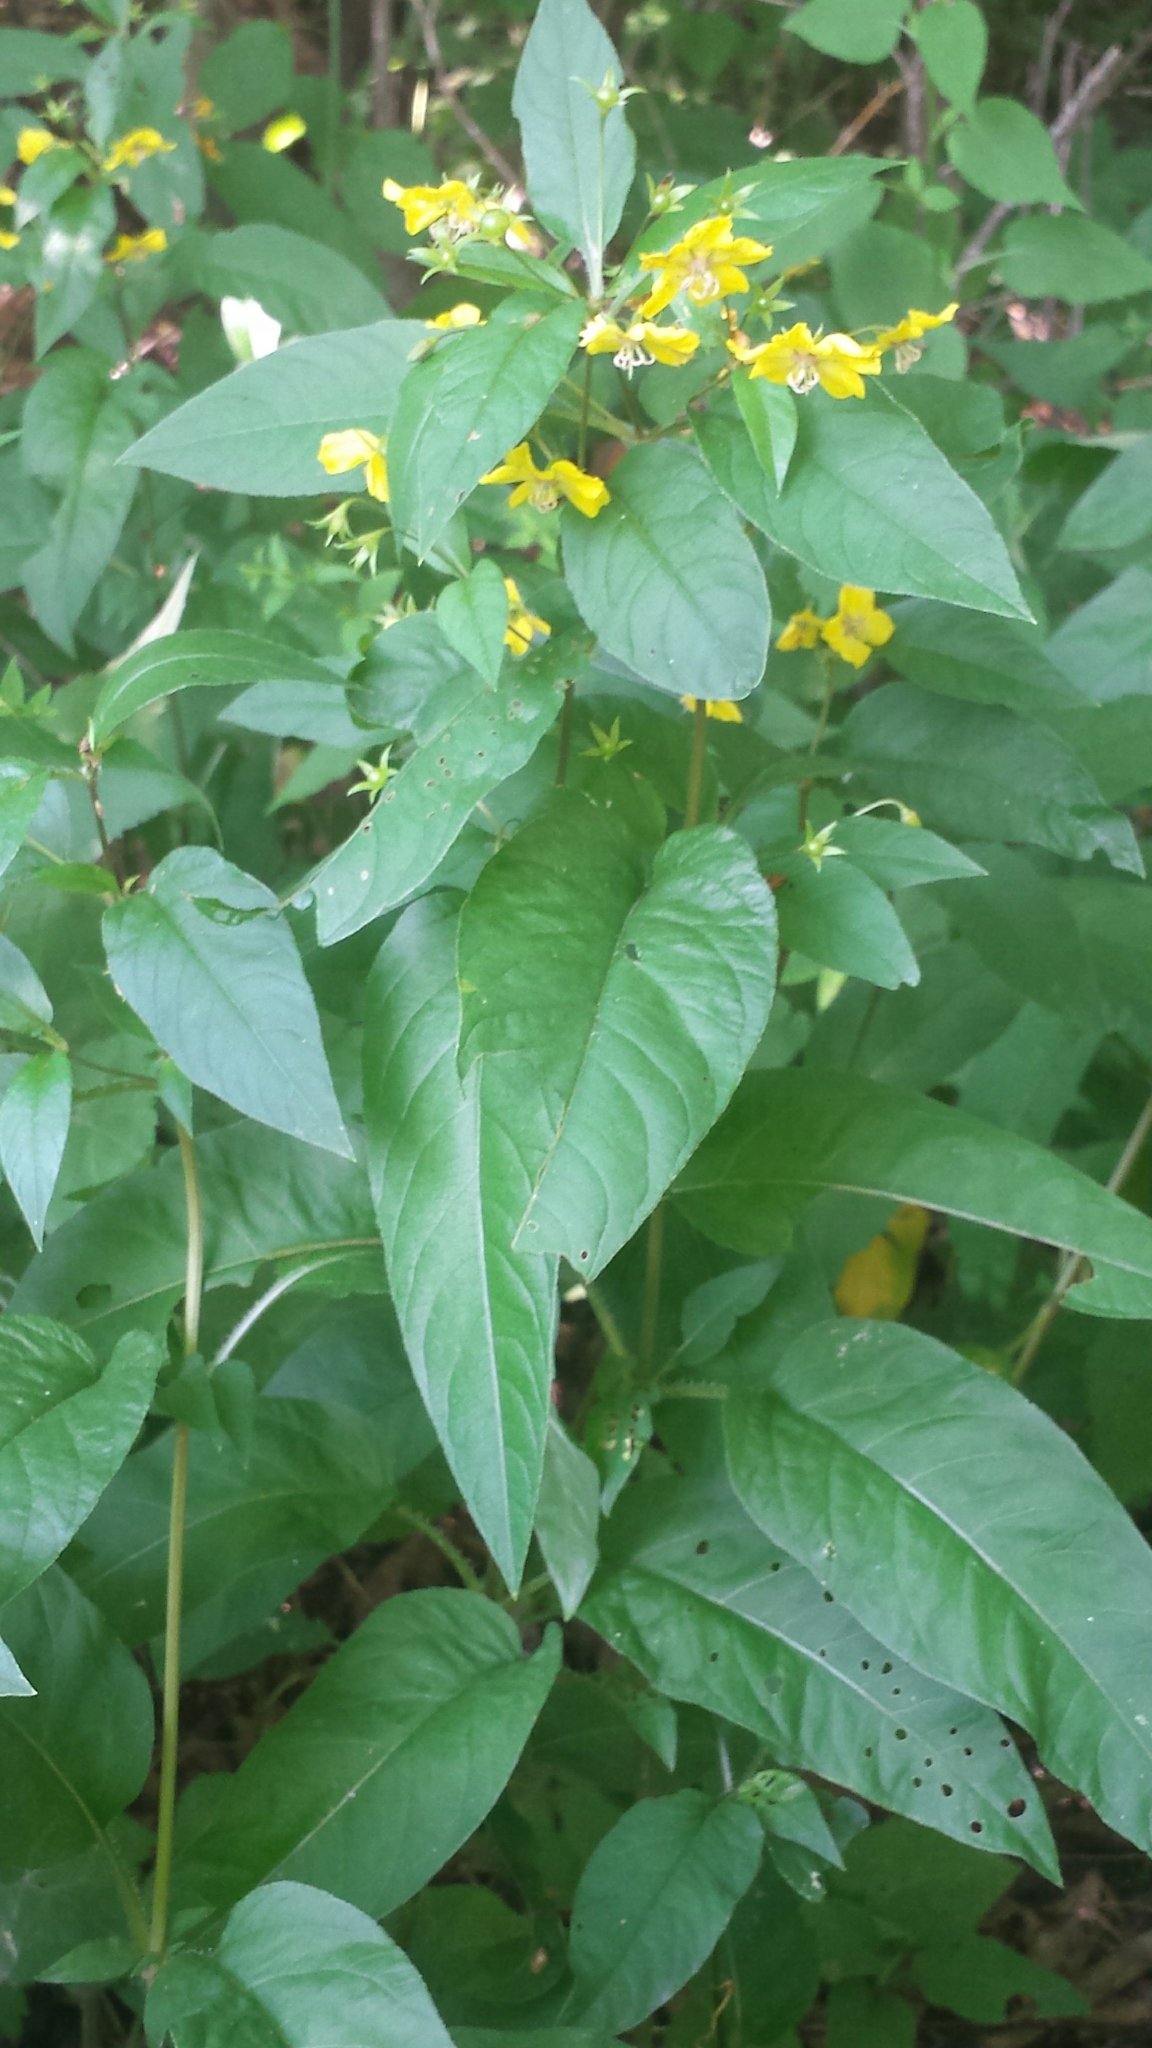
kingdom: Plantae
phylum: Tracheophyta
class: Magnoliopsida
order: Ericales
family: Primulaceae
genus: Lysimachia
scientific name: Lysimachia ciliata
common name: Fringed loosestrife
